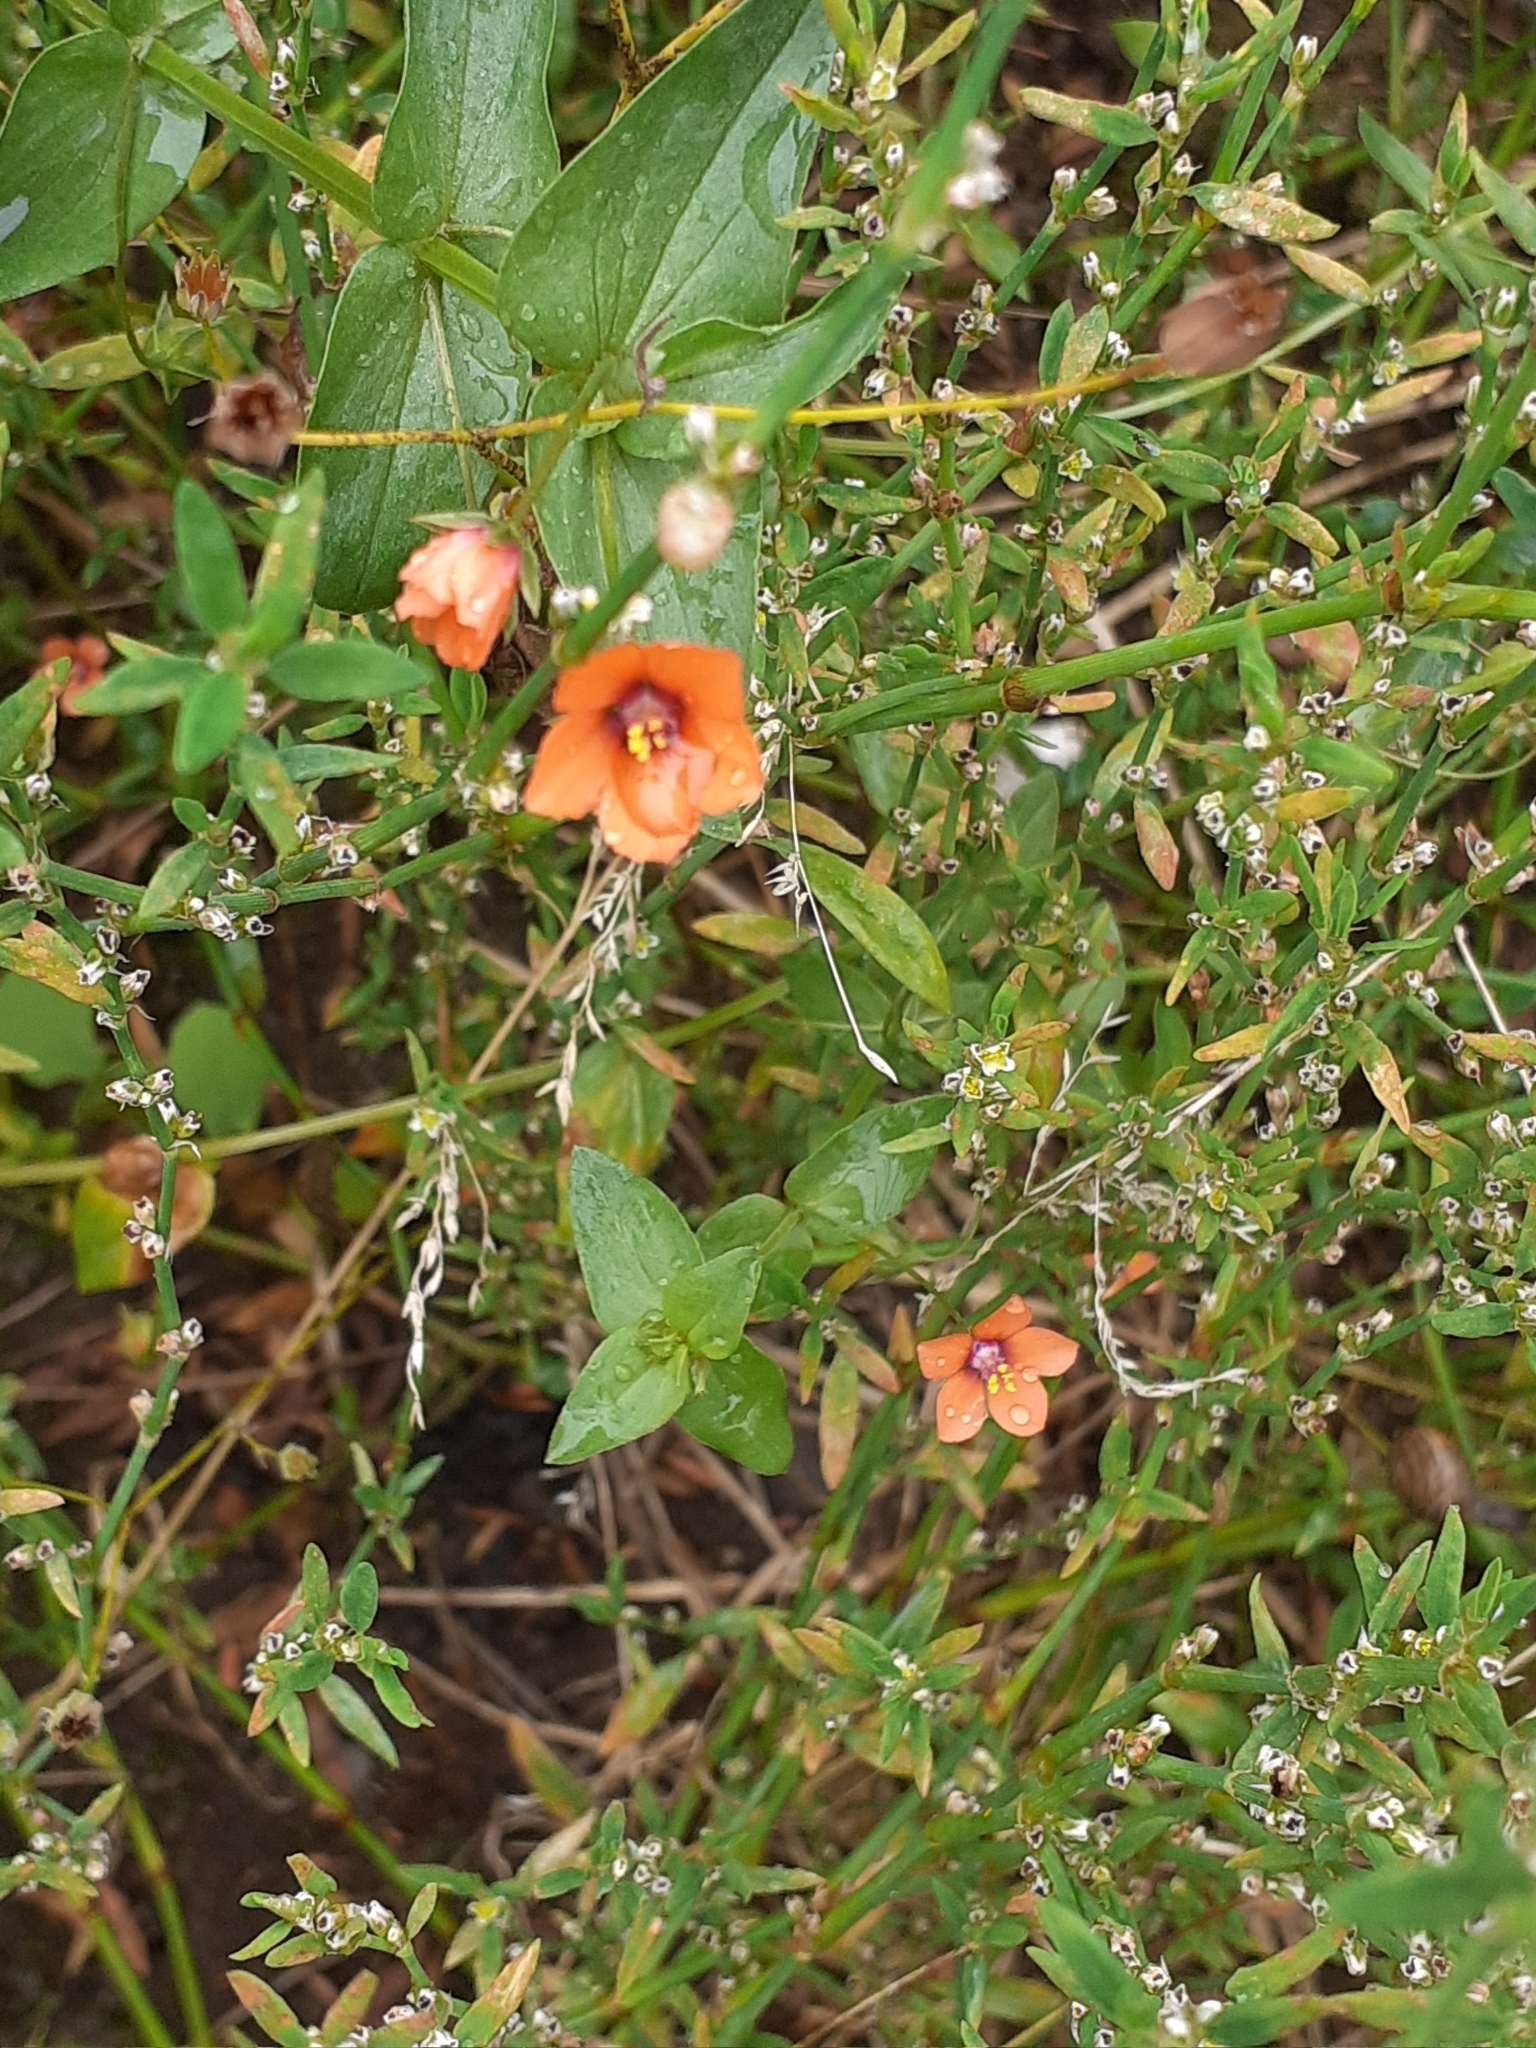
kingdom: Plantae
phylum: Tracheophyta
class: Magnoliopsida
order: Ericales
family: Primulaceae
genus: Lysimachia
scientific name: Lysimachia arvensis
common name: Scarlet pimpernel
